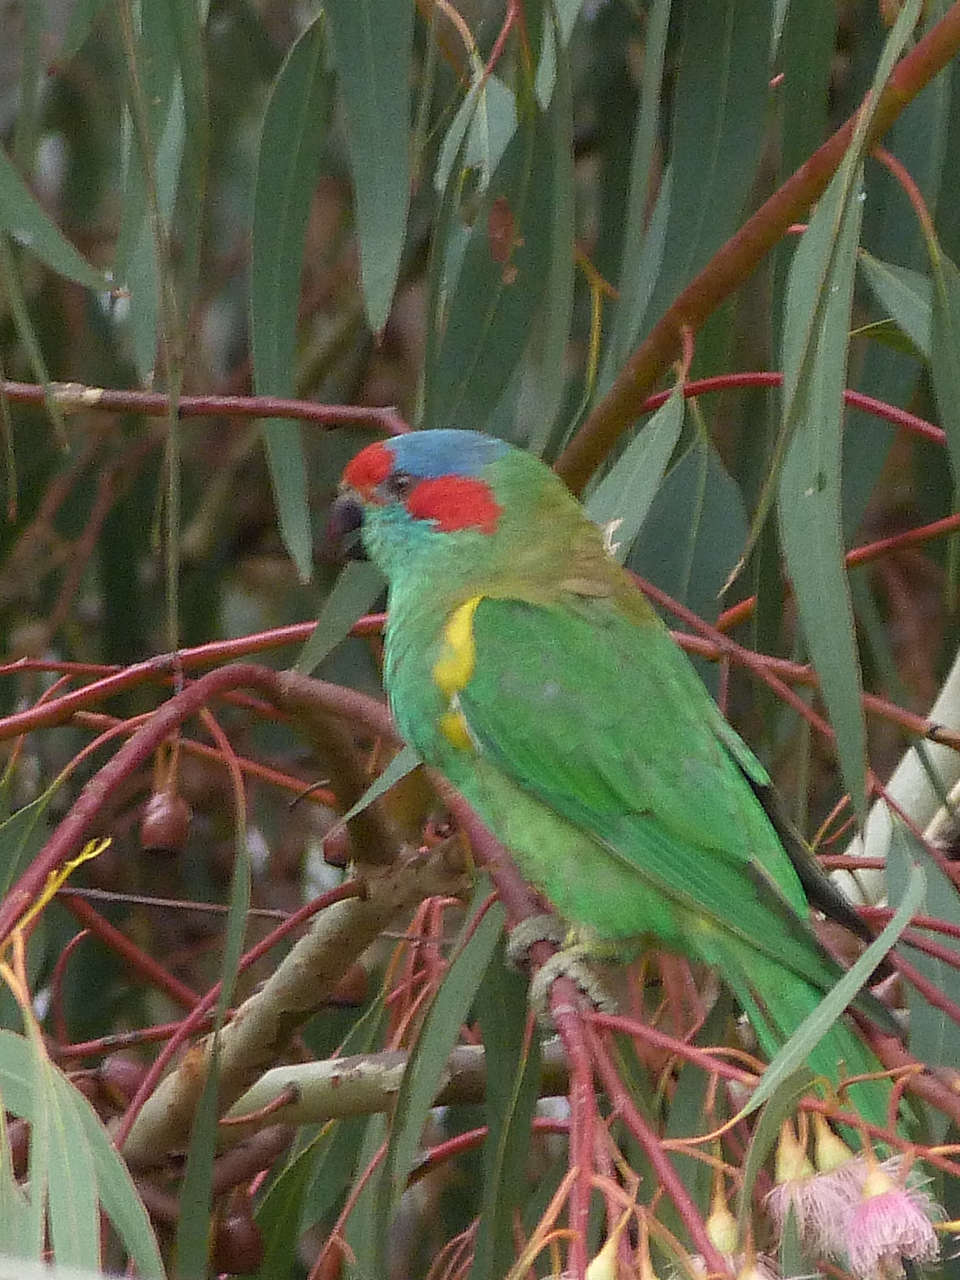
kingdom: Animalia
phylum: Chordata
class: Aves
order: Psittaciformes
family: Psittacidae
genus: Glossopsitta
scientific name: Glossopsitta concinna
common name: Musk lorikeet
